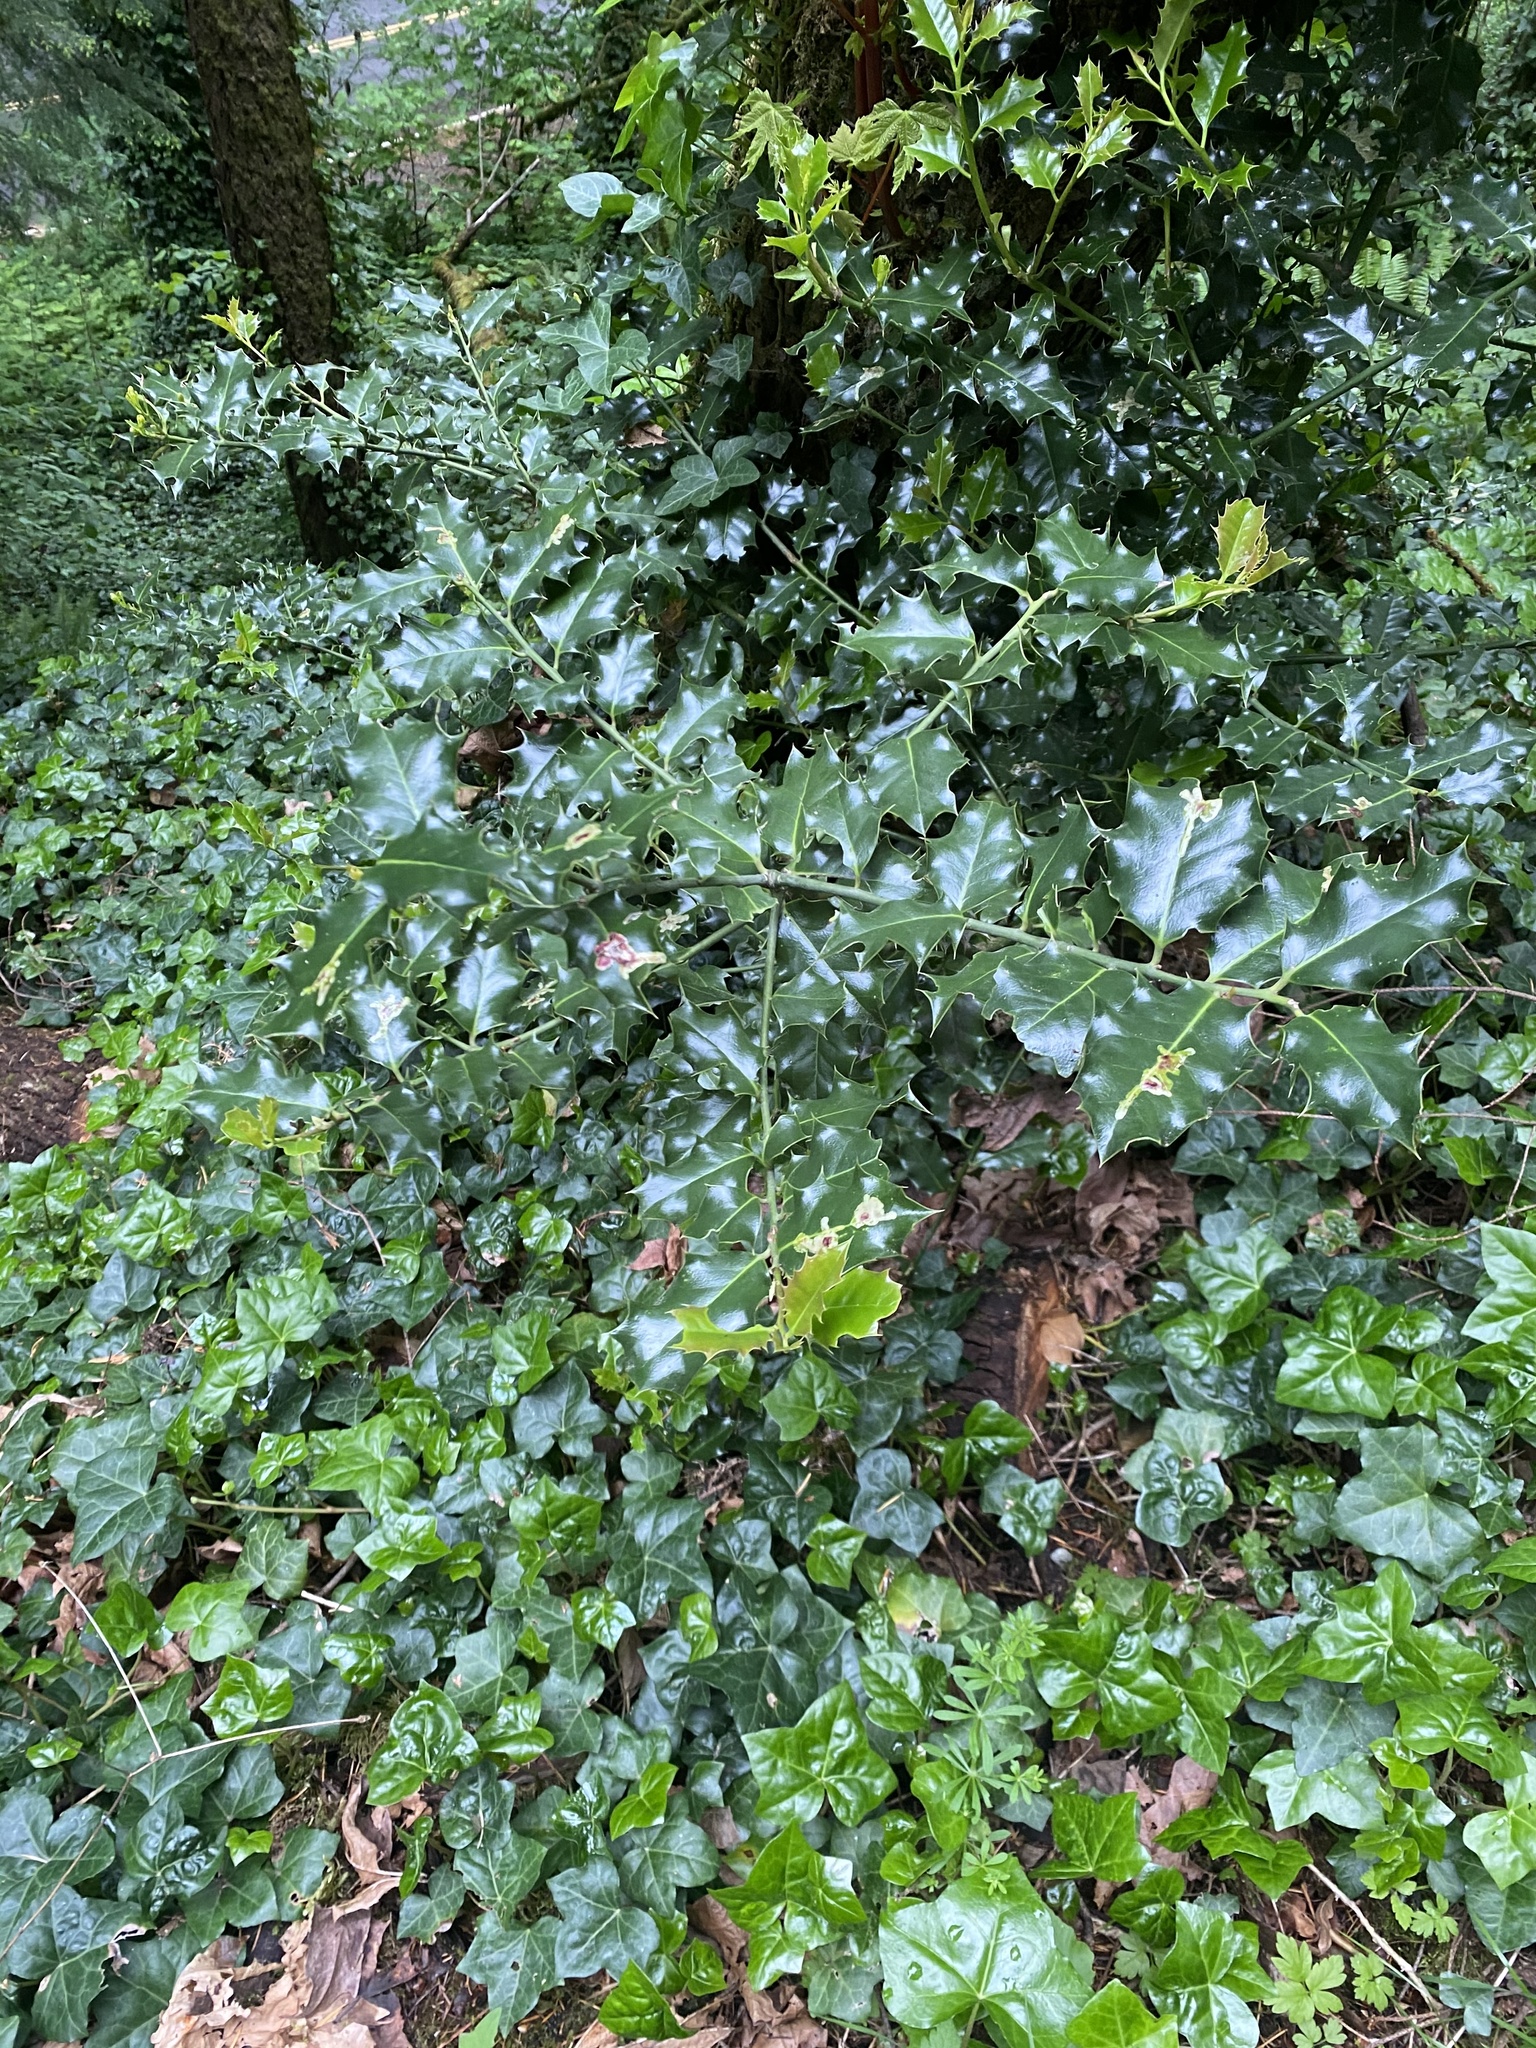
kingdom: Plantae
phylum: Tracheophyta
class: Magnoliopsida
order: Aquifoliales
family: Aquifoliaceae
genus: Ilex
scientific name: Ilex aquifolium
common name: English holly
